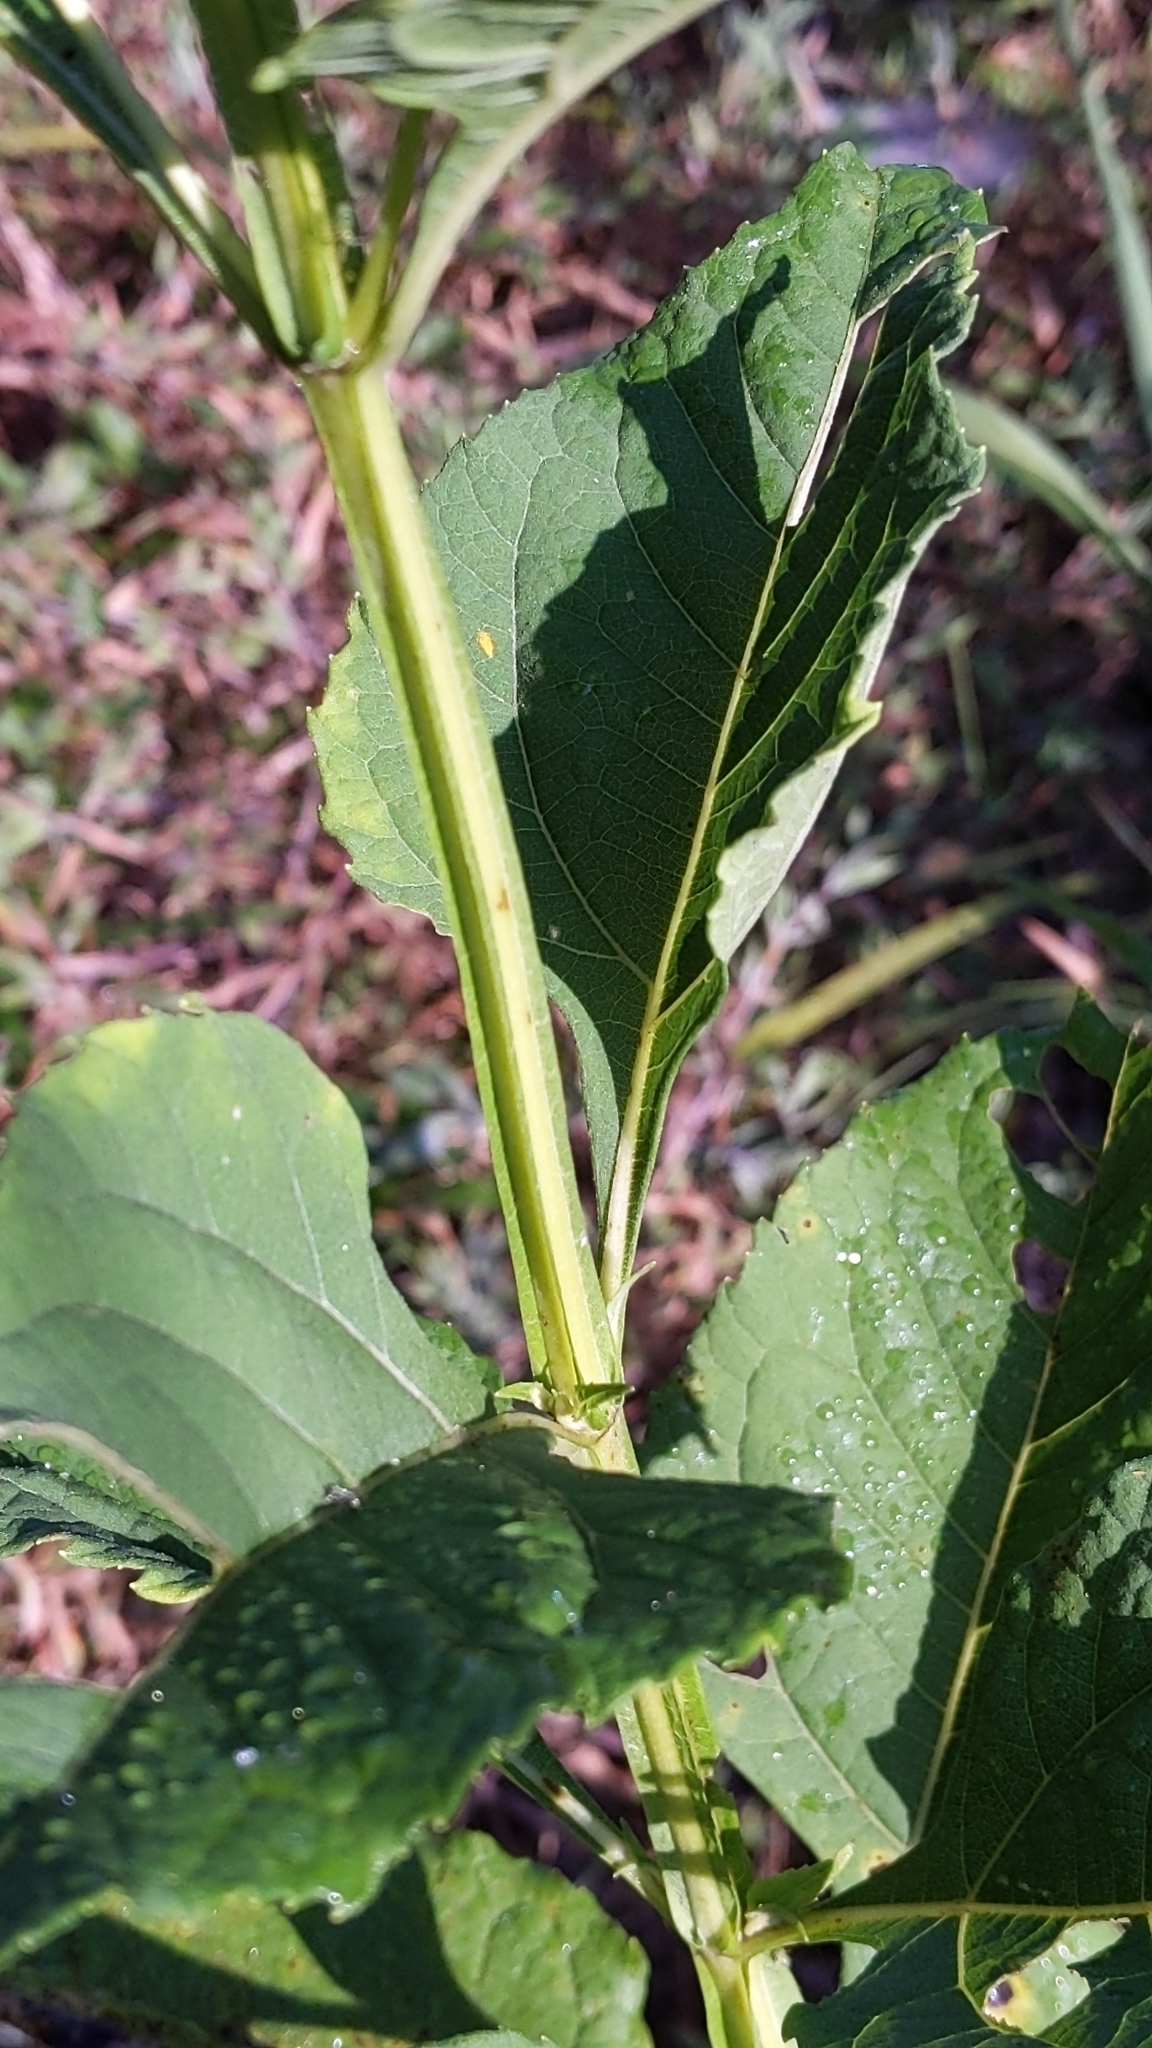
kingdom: Plantae
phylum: Tracheophyta
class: Magnoliopsida
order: Asterales
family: Asteraceae
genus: Verbesina
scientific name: Verbesina occidentalis
